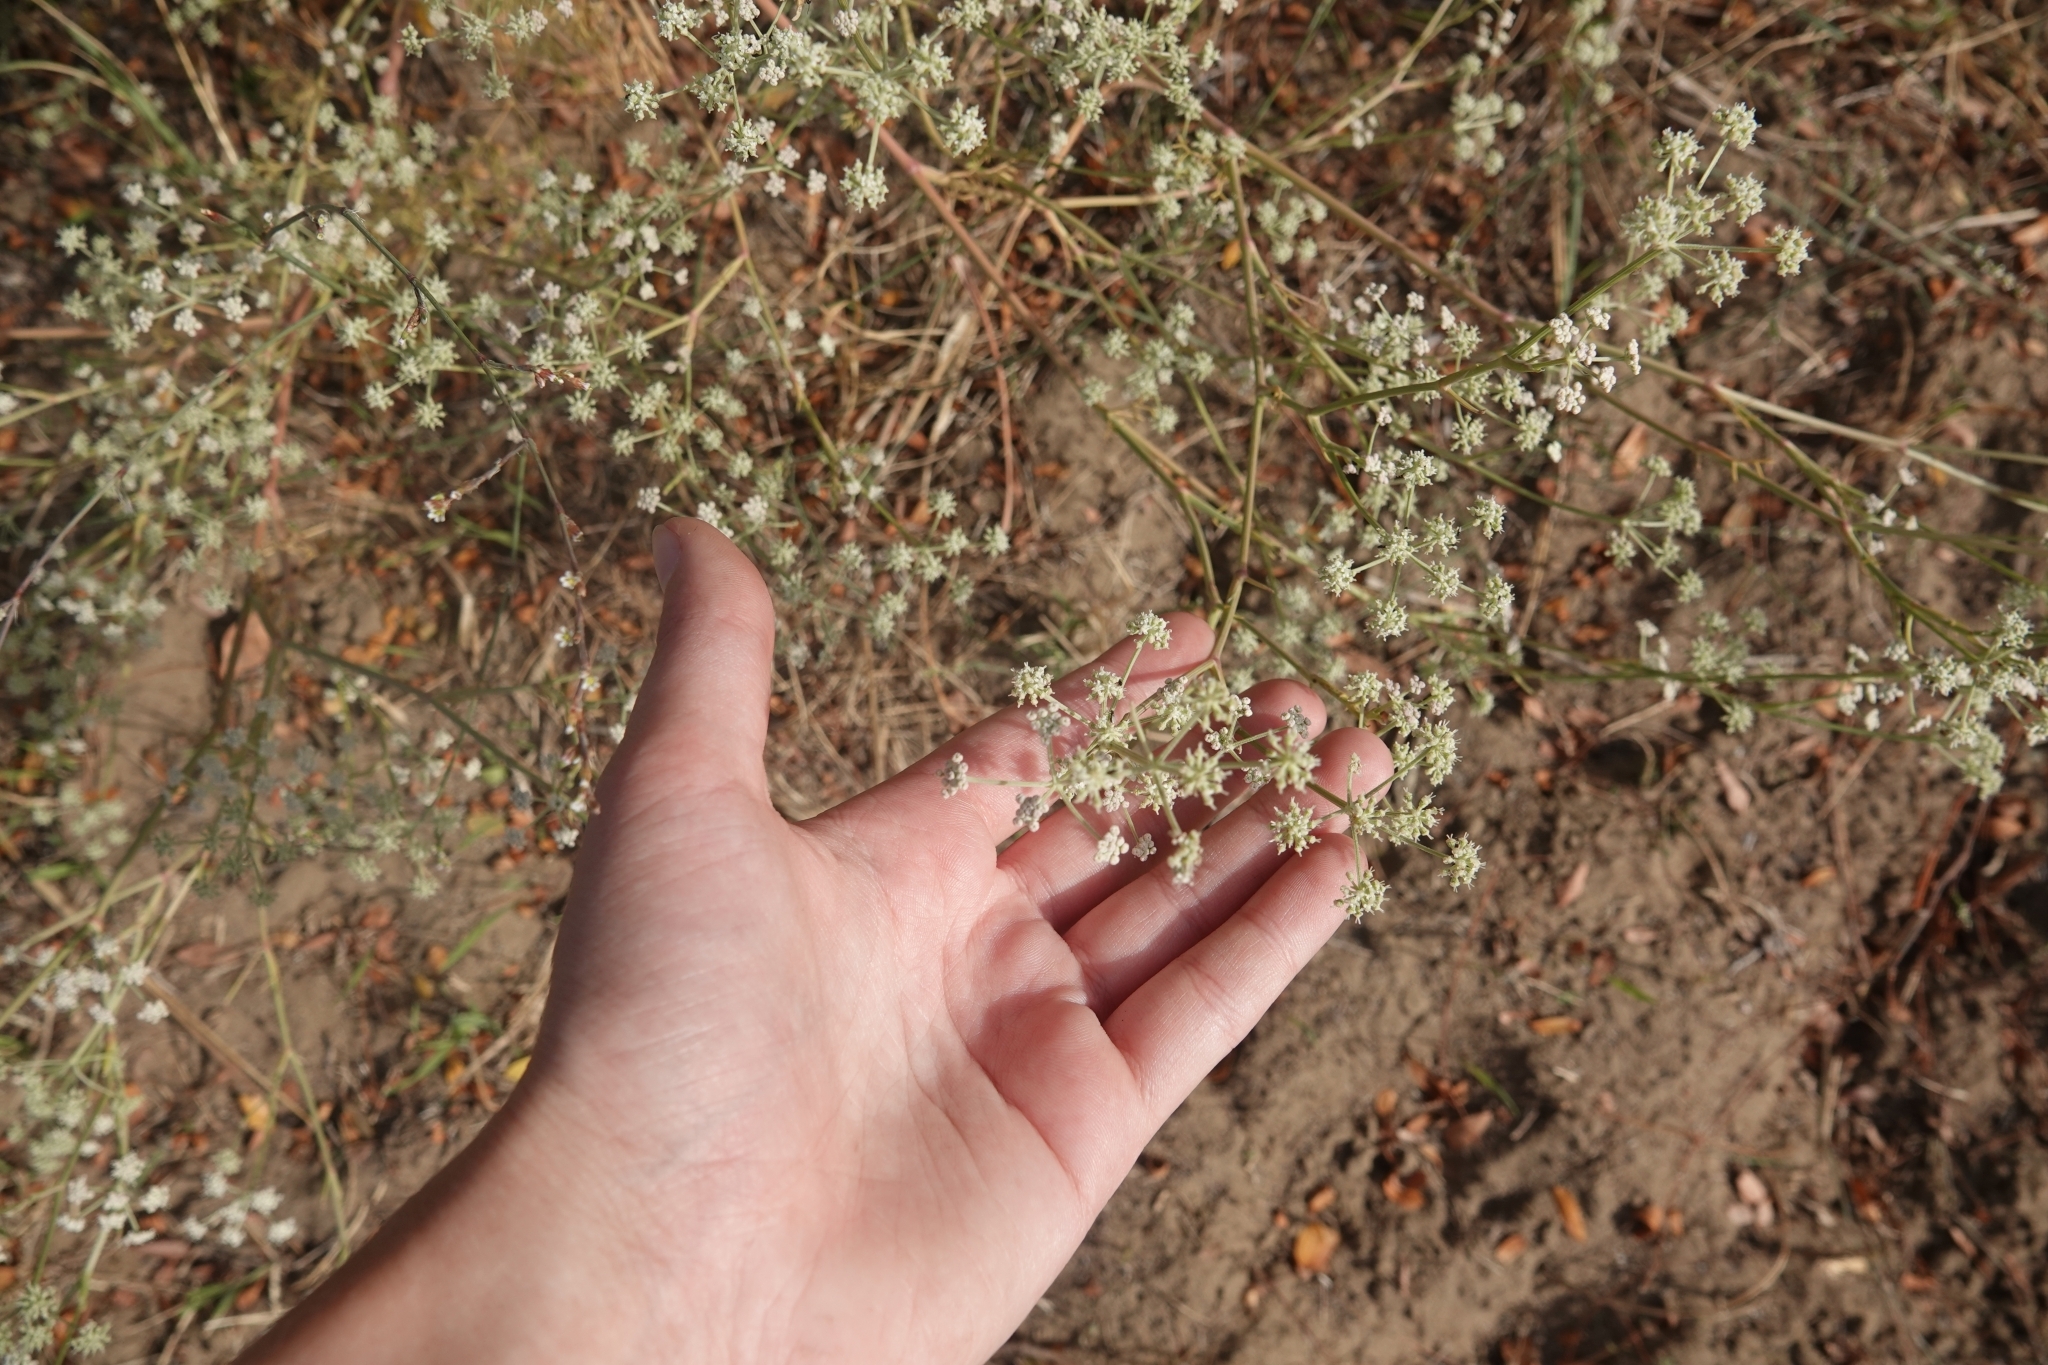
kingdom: Plantae
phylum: Tracheophyta
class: Magnoliopsida
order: Apiales
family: Apiaceae
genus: Seseli
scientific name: Seseli arenarium
